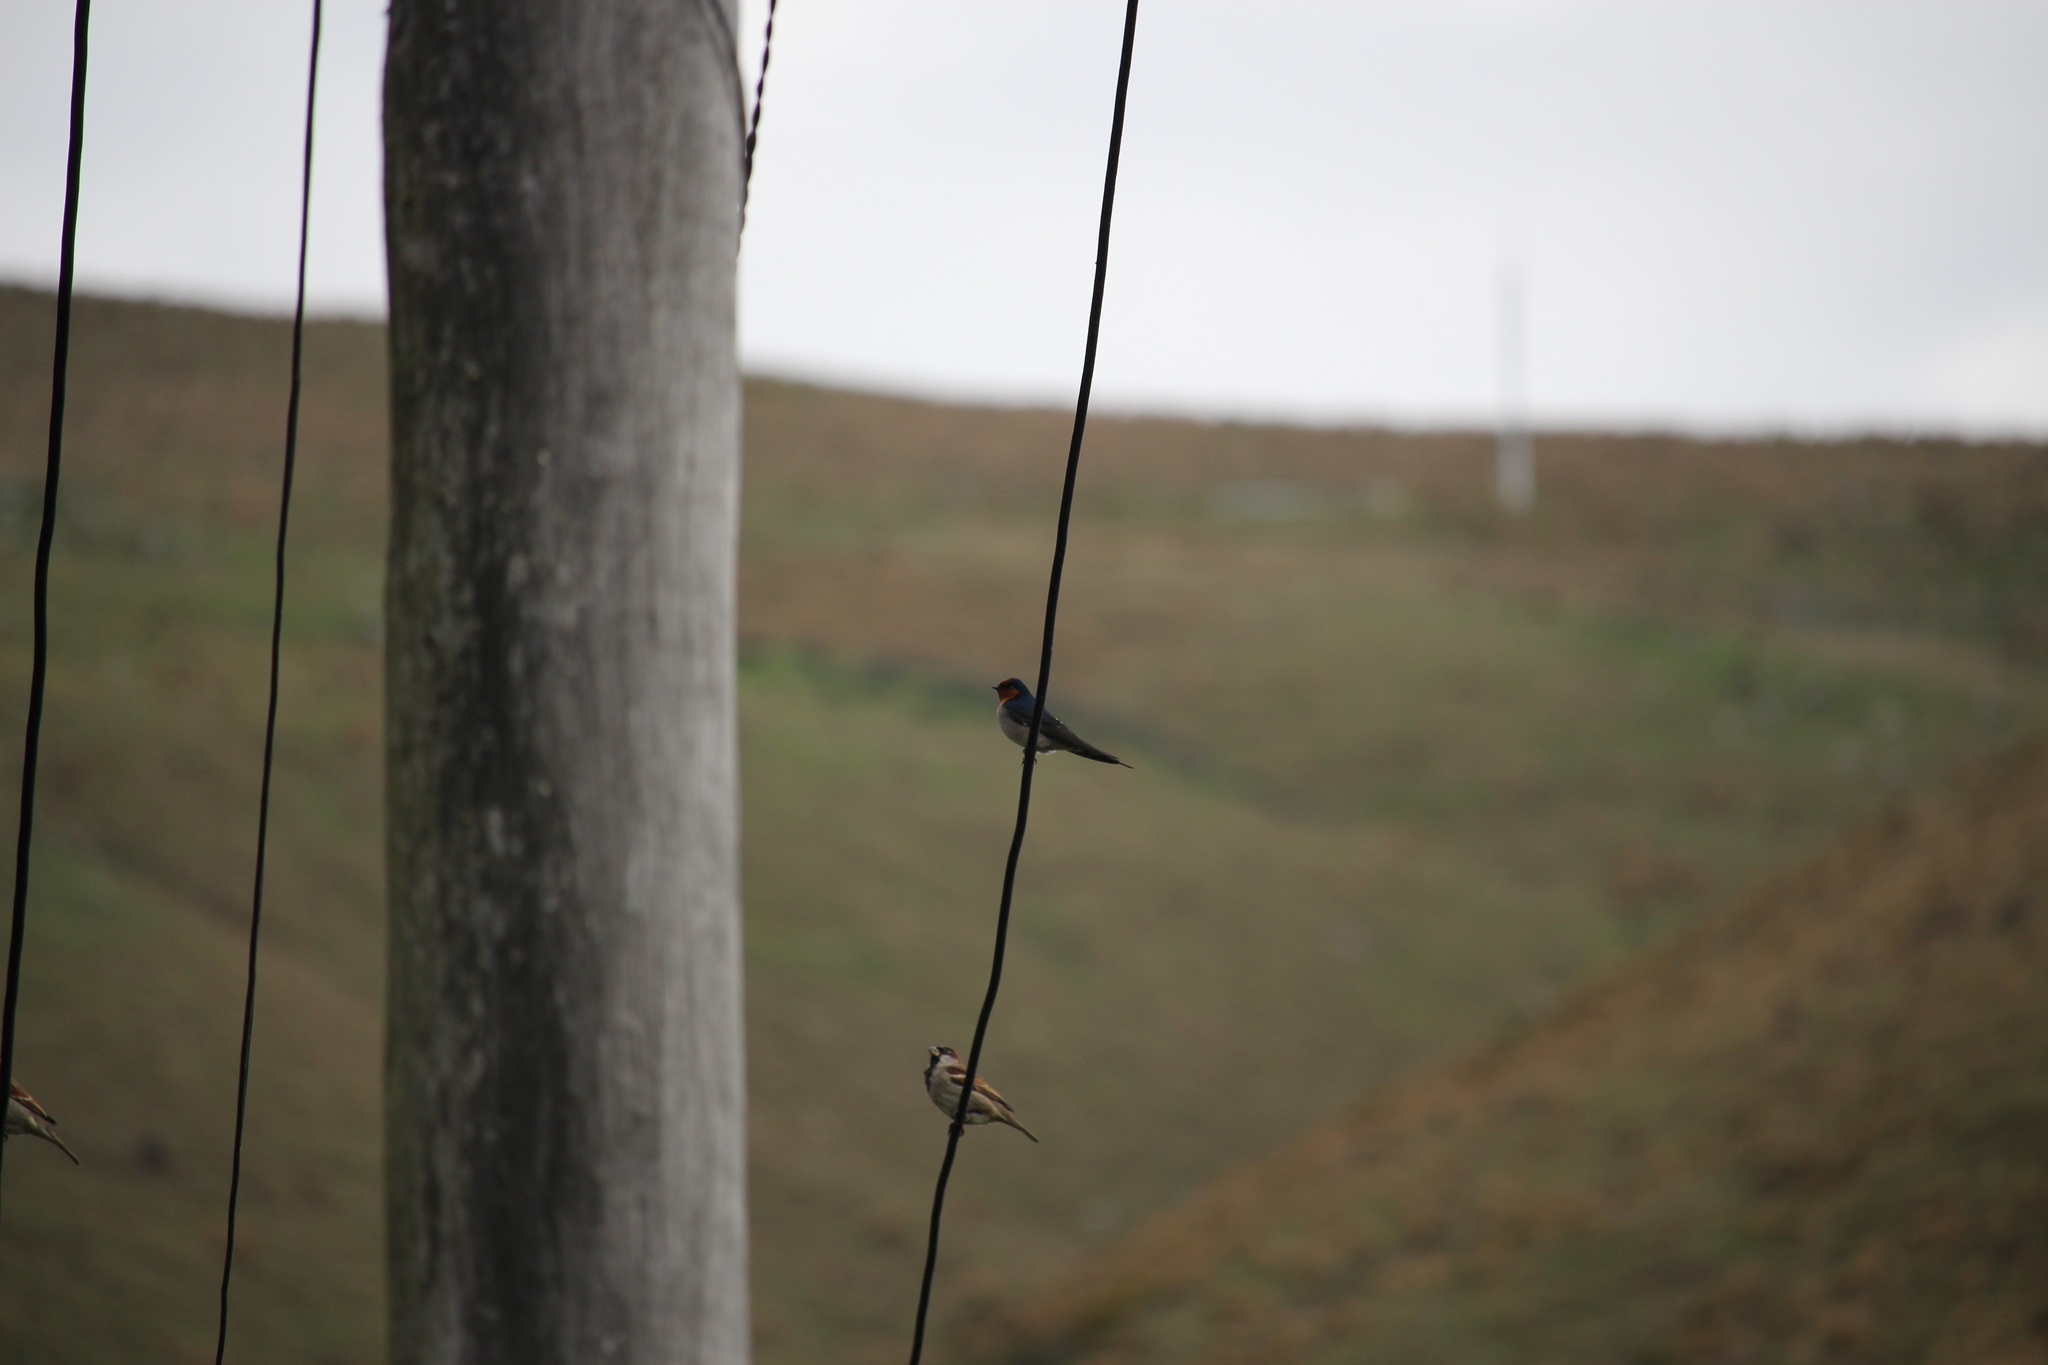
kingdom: Animalia
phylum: Chordata
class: Aves
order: Passeriformes
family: Hirundinidae
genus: Hirundo
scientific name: Hirundo neoxena
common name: Welcome swallow
